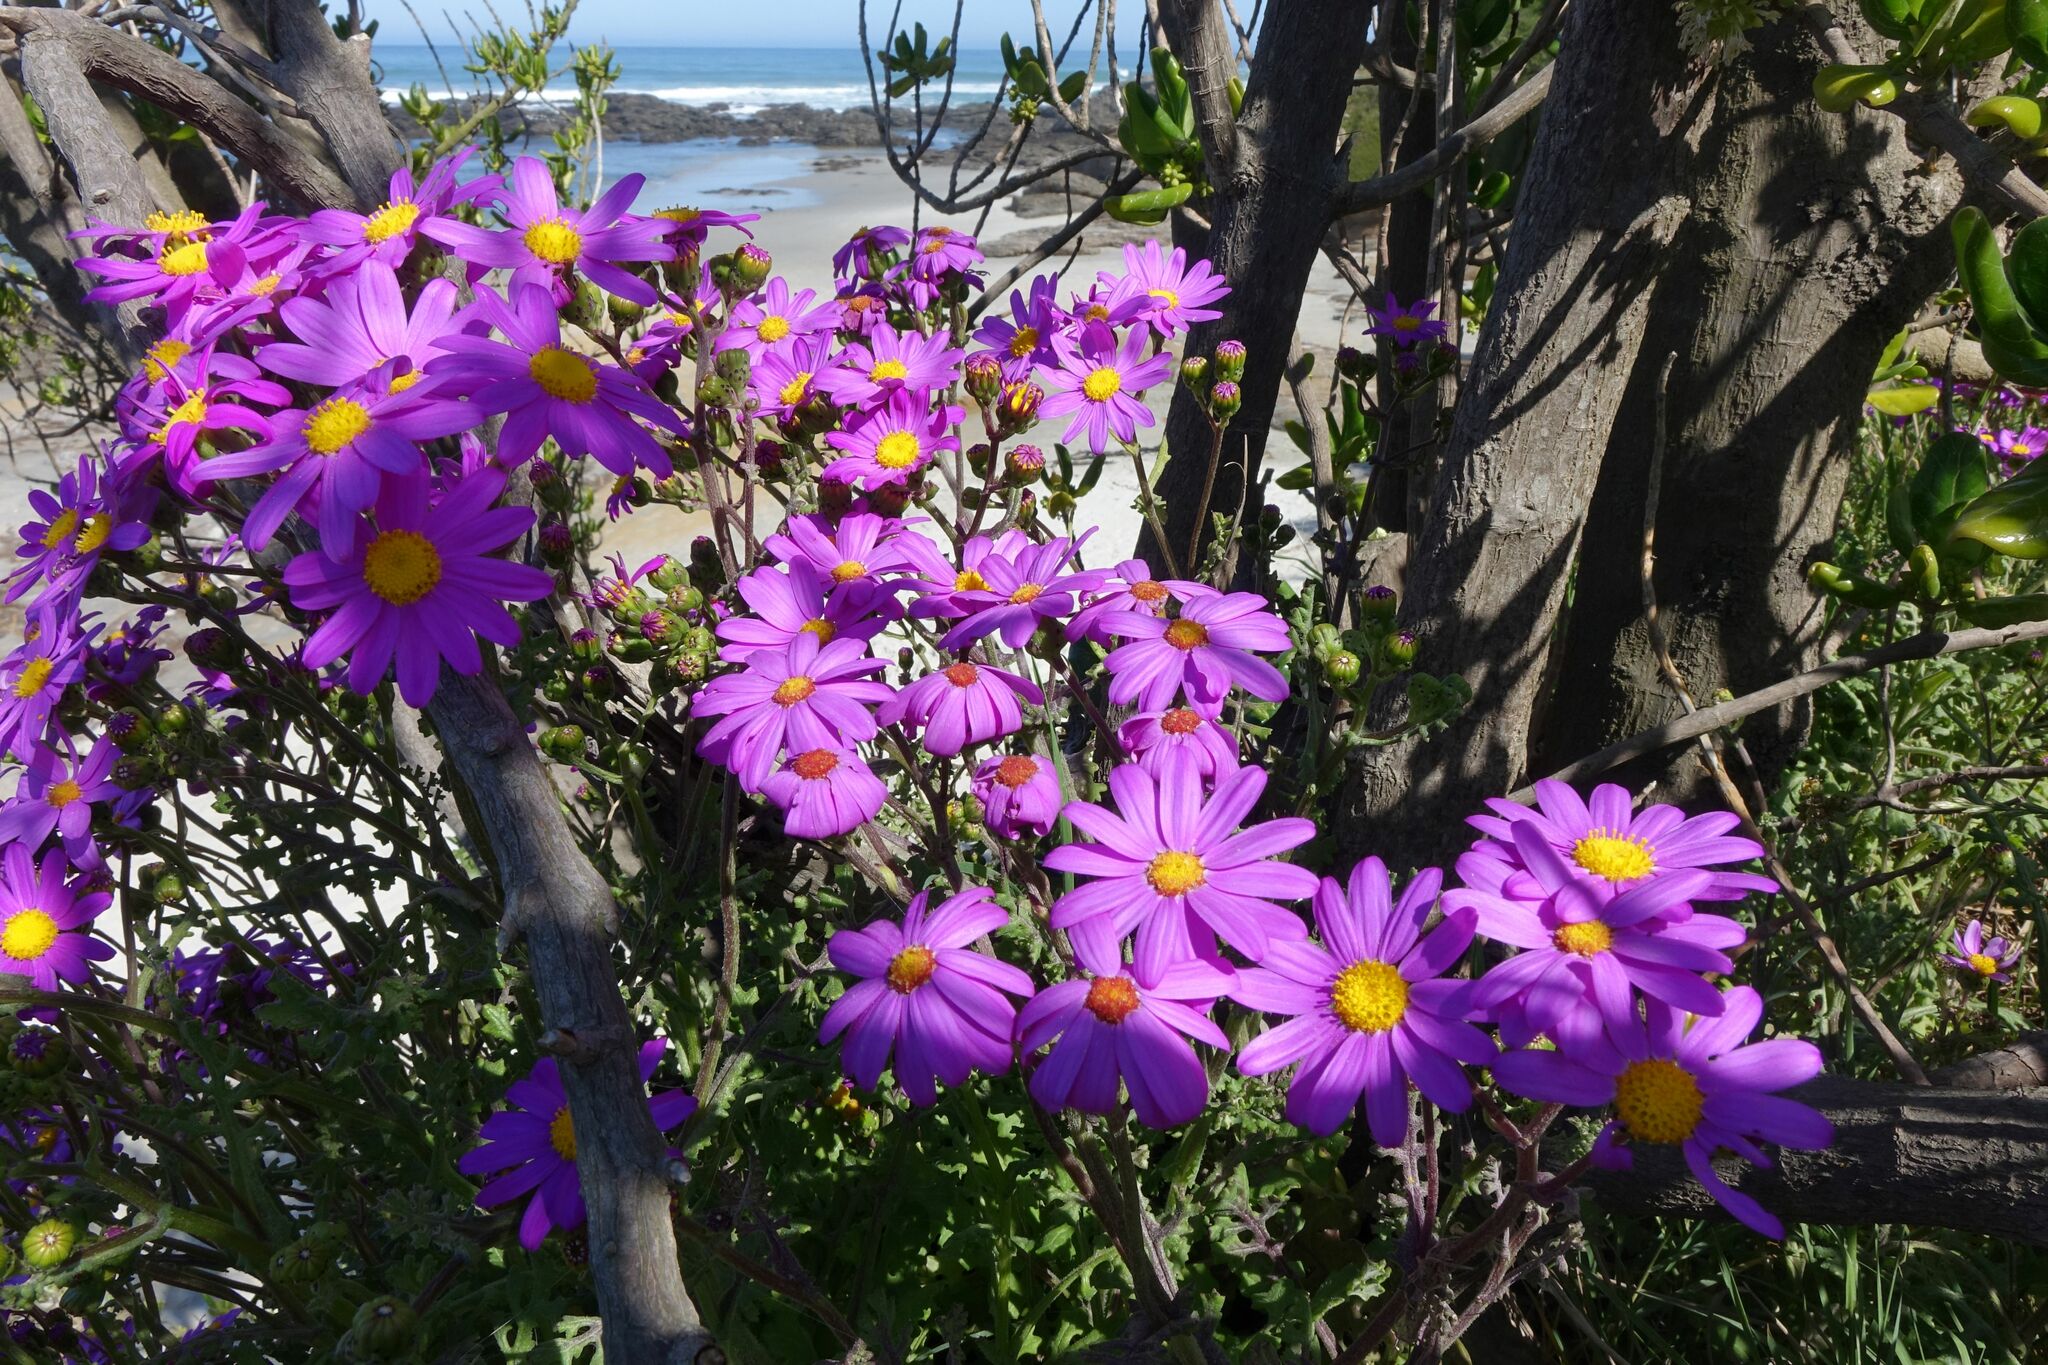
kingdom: Plantae
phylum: Tracheophyta
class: Magnoliopsida
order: Asterales
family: Asteraceae
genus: Senecio
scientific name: Senecio elegans
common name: Purple groundsel
